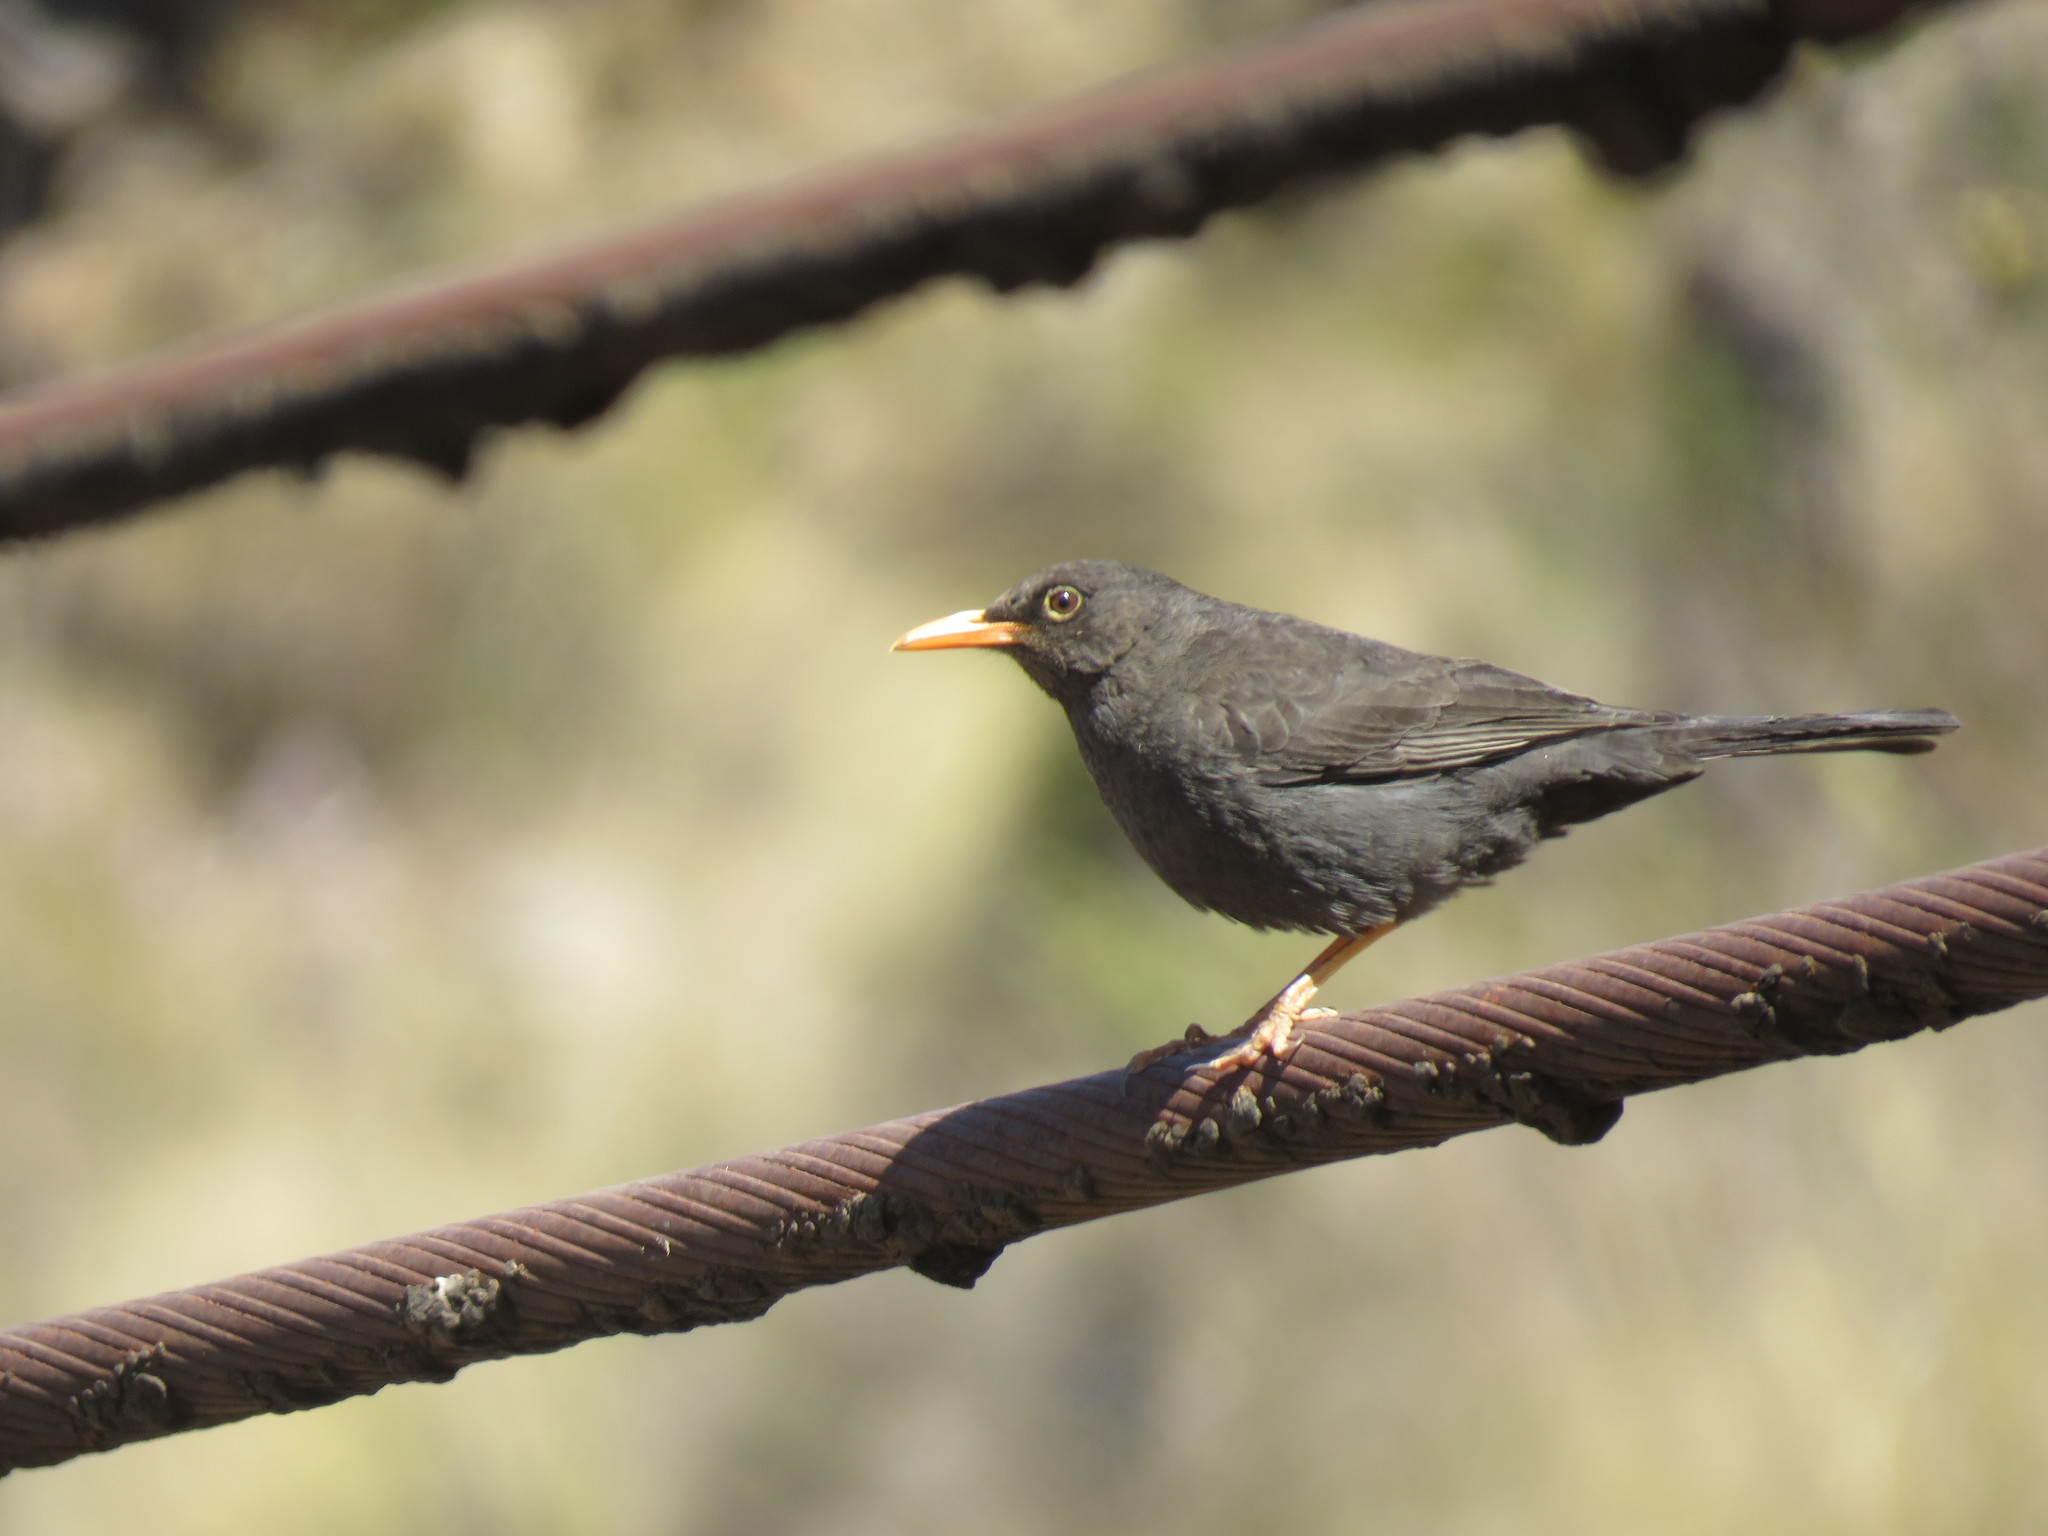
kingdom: Animalia
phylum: Chordata
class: Aves
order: Passeriformes
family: Turdidae
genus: Turdus
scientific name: Turdus chiguanco
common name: Chiguanco thrush
